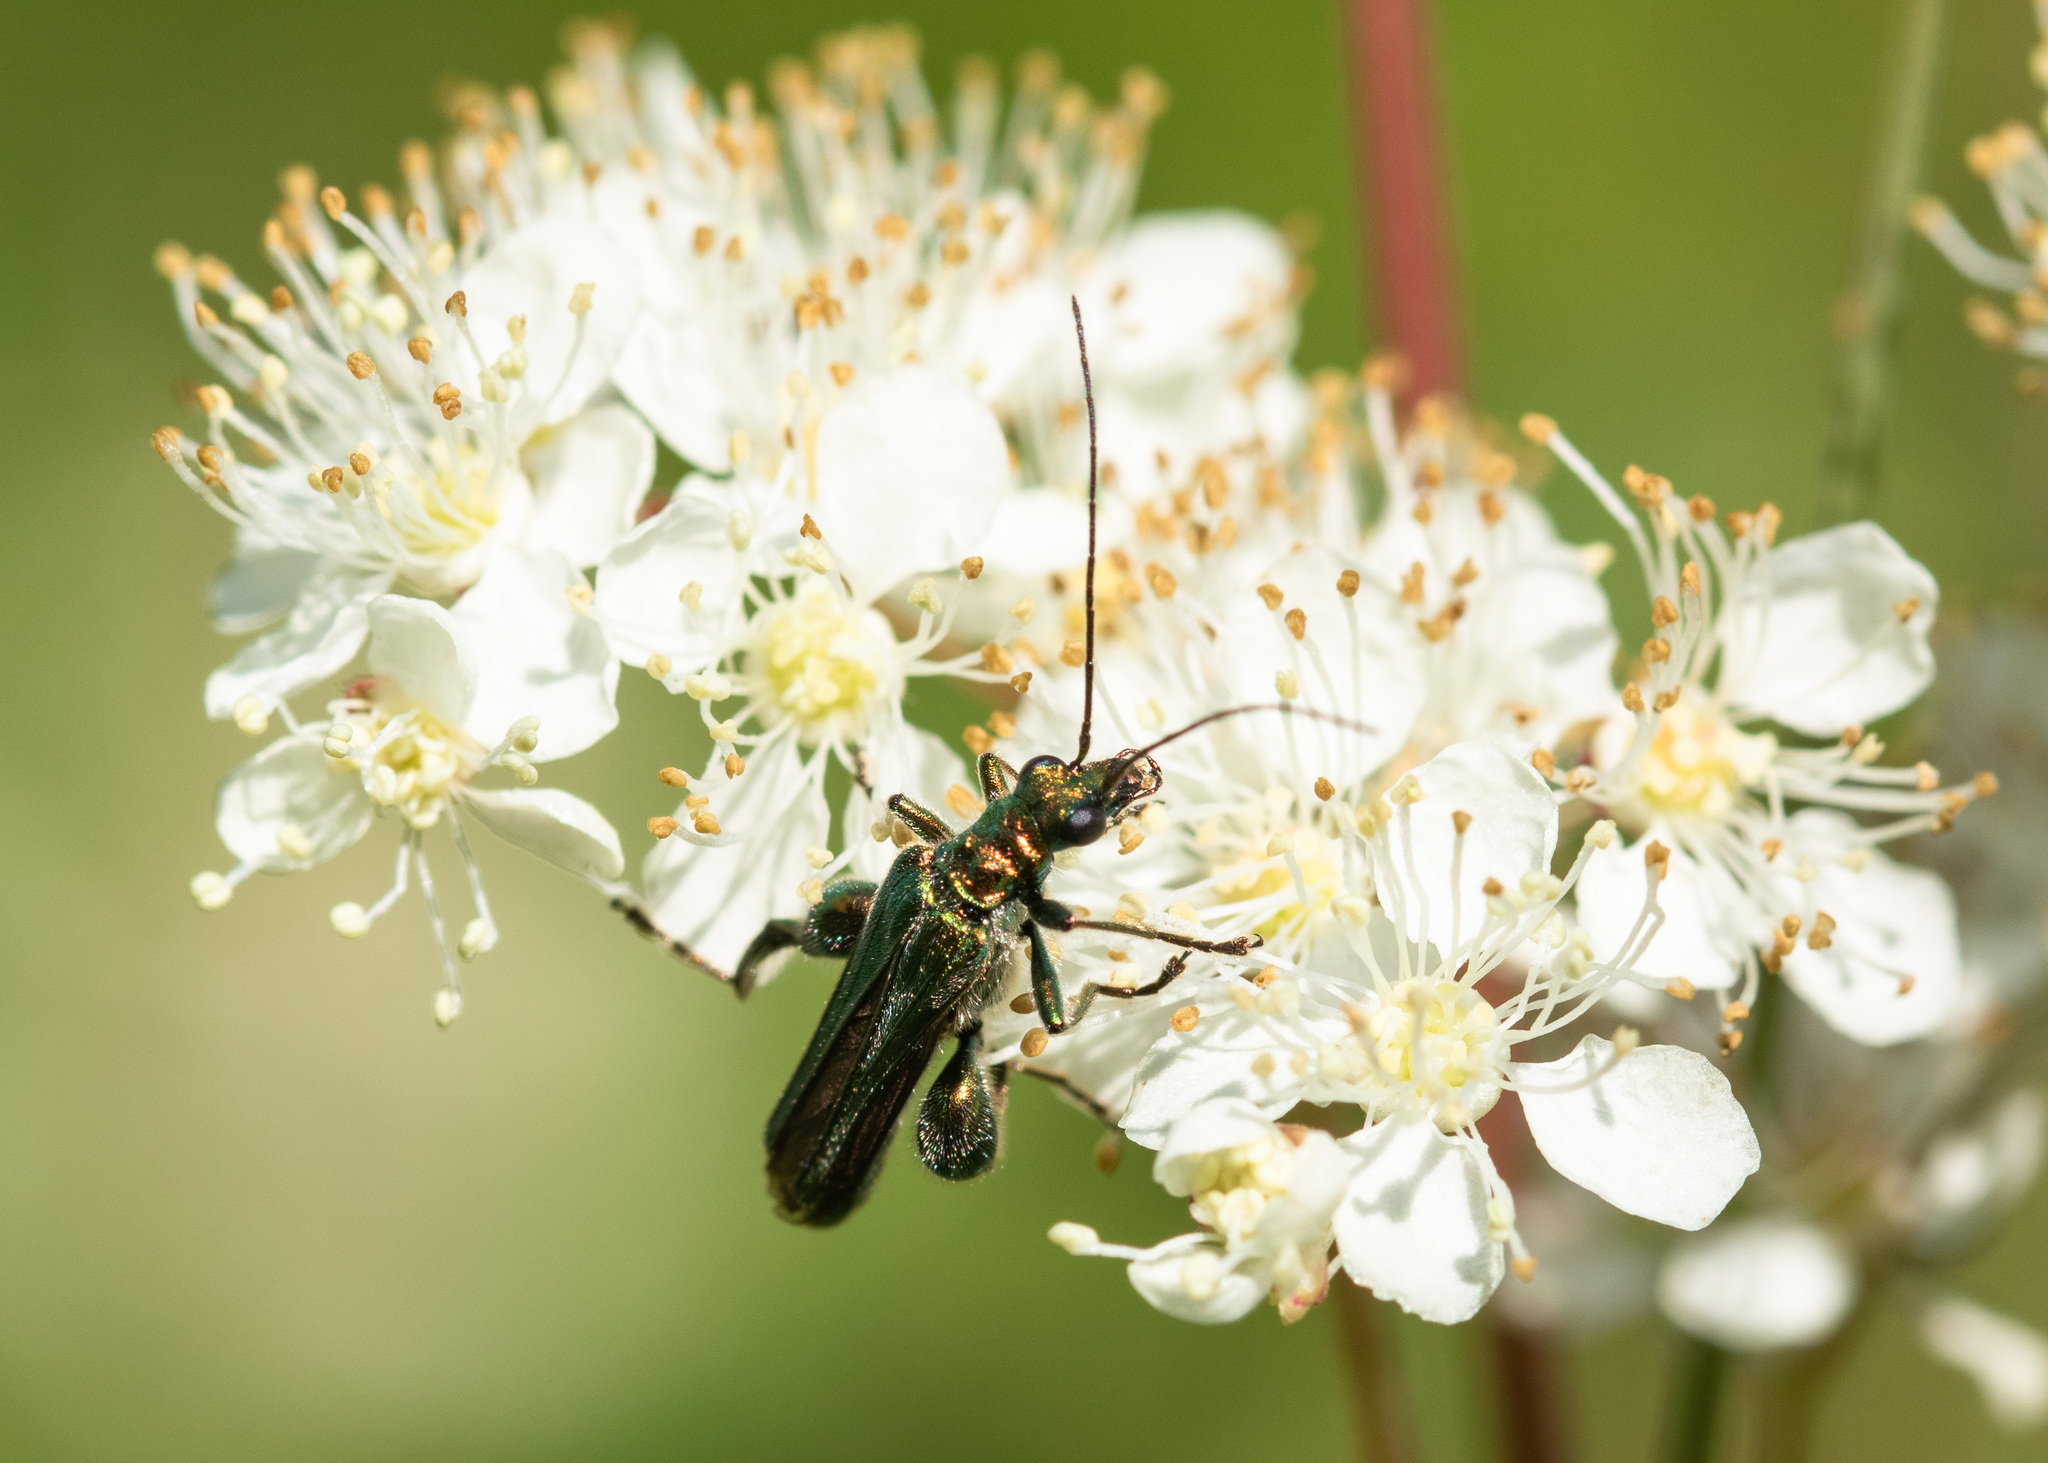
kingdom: Animalia
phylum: Arthropoda
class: Insecta
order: Coleoptera
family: Oedemeridae
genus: Oedemera
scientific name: Oedemera nobilis
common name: Swollen-thighed beetle
